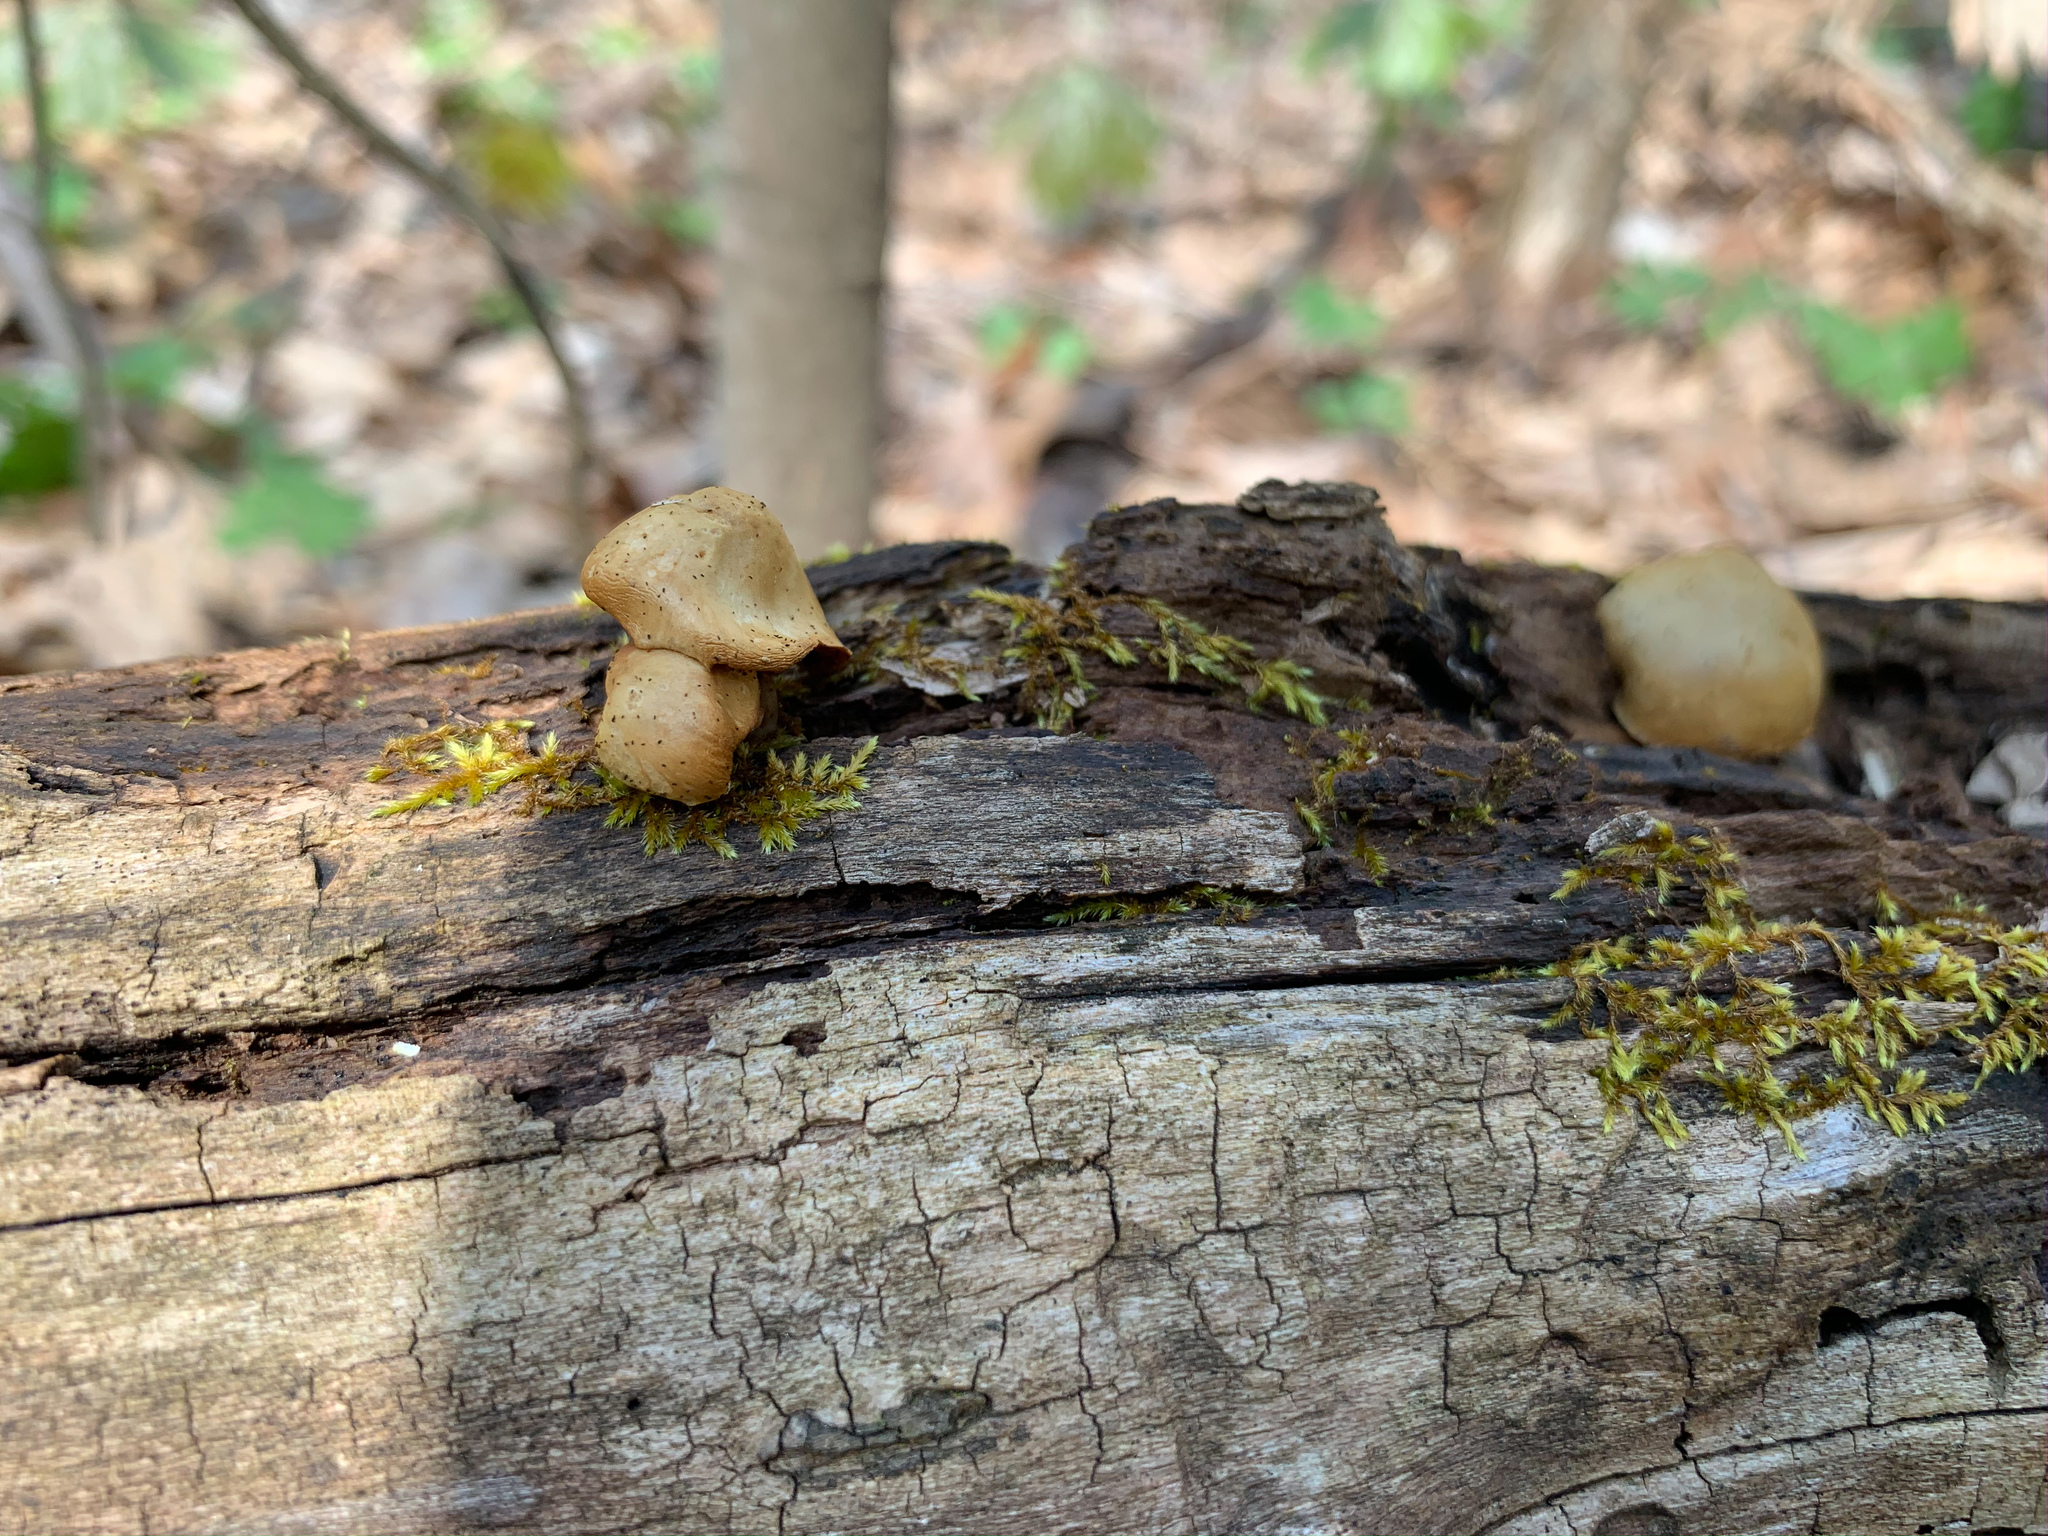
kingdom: Fungi
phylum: Basidiomycota
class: Agaricomycetes
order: Agaricales
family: Hymenogastraceae
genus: Galerina
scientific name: Galerina marginata
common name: Funeral bell
